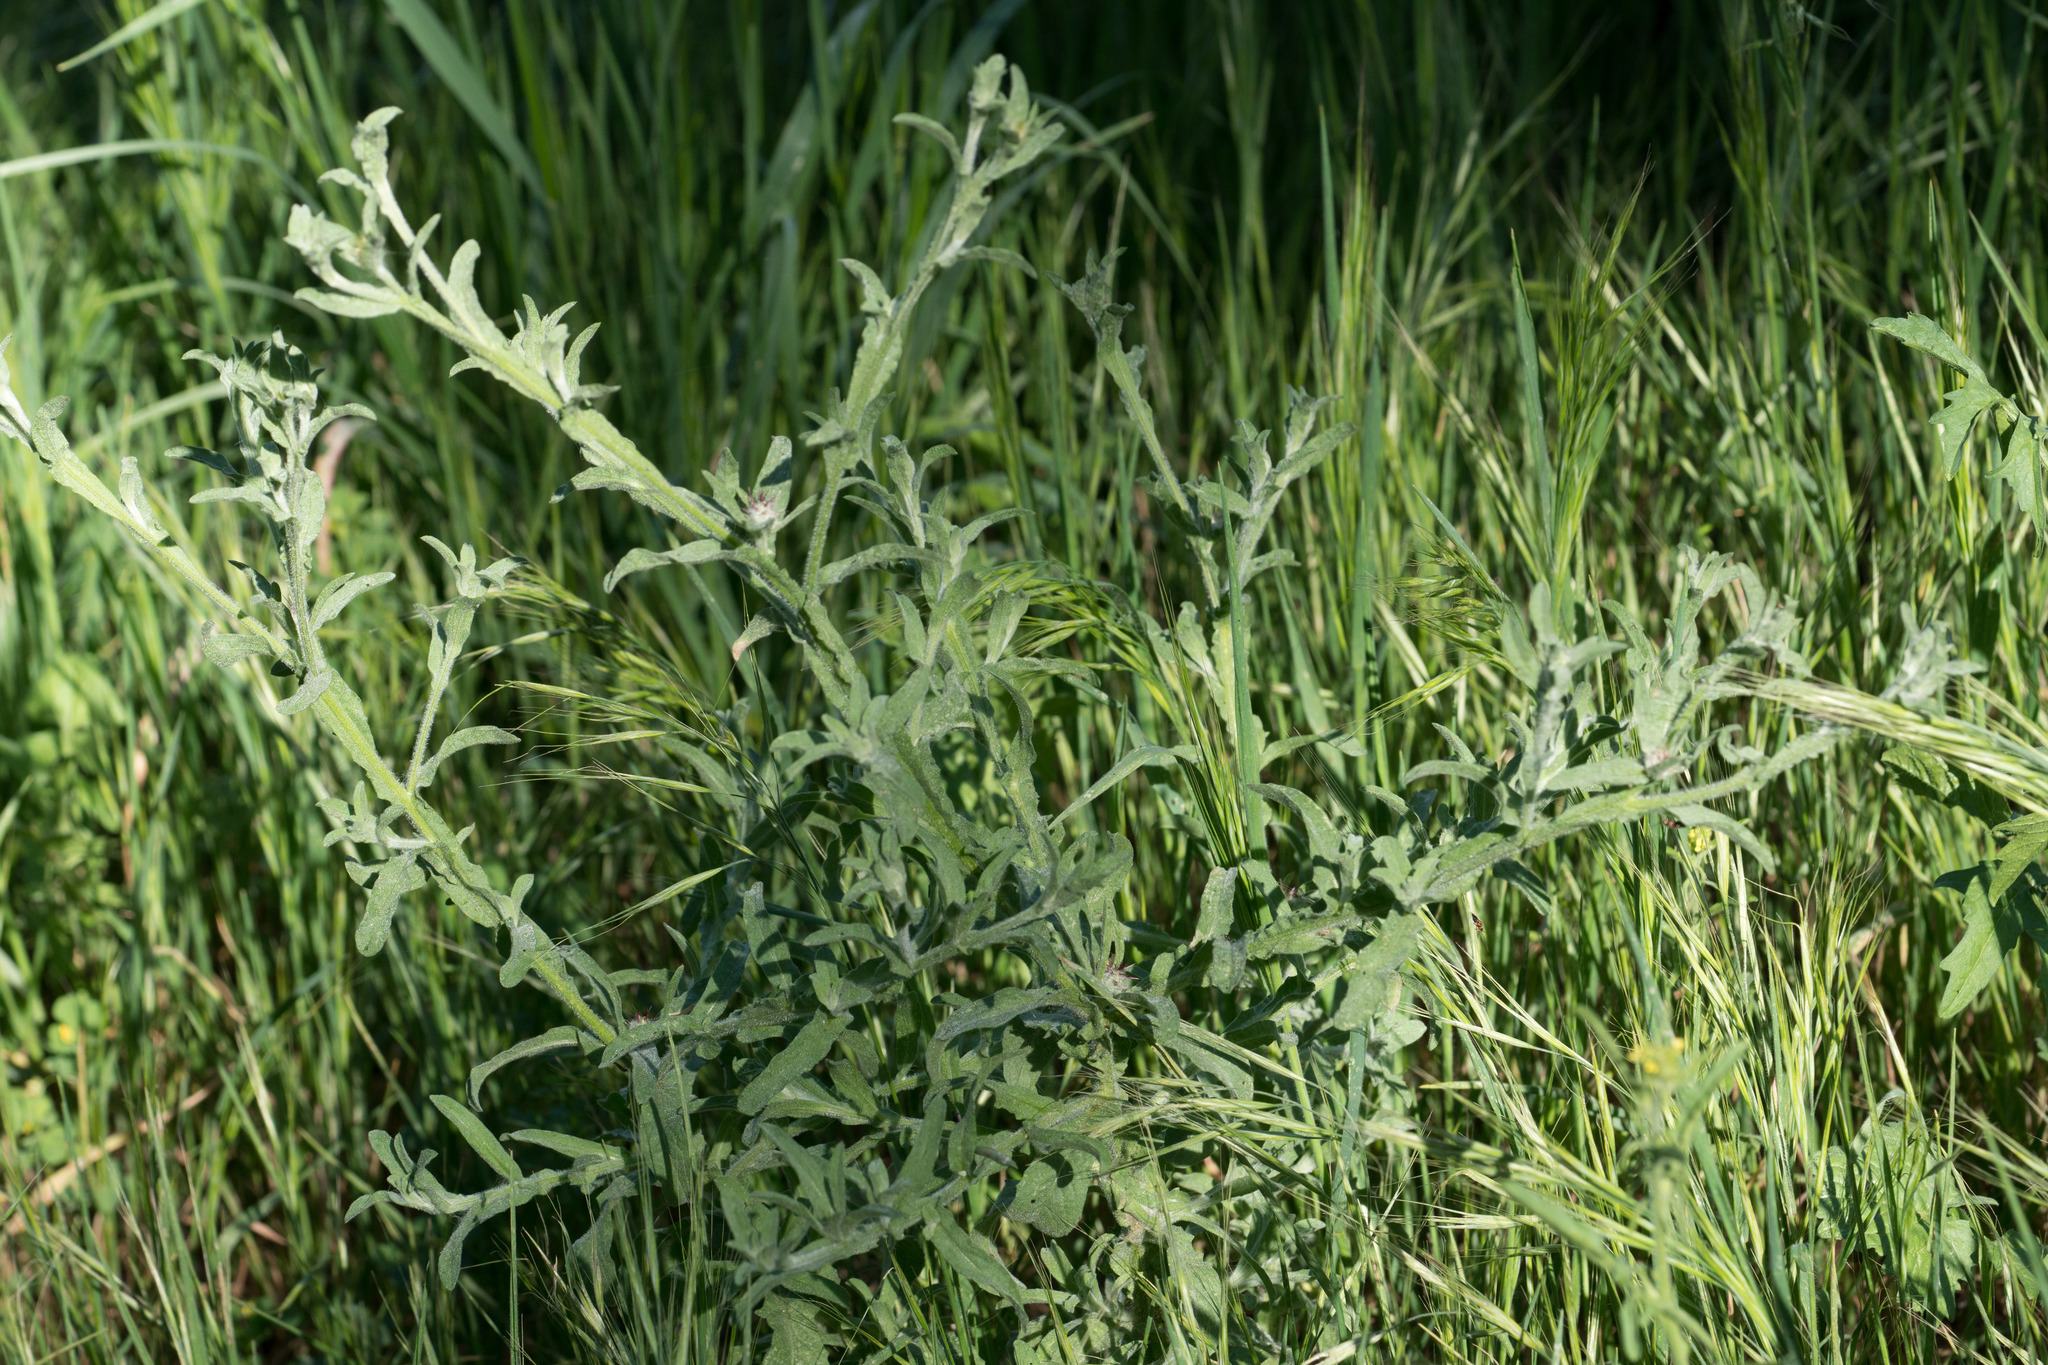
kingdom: Plantae
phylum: Tracheophyta
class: Magnoliopsida
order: Asterales
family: Asteraceae
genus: Centaurea
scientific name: Centaurea melitensis
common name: Maltese star-thistle
